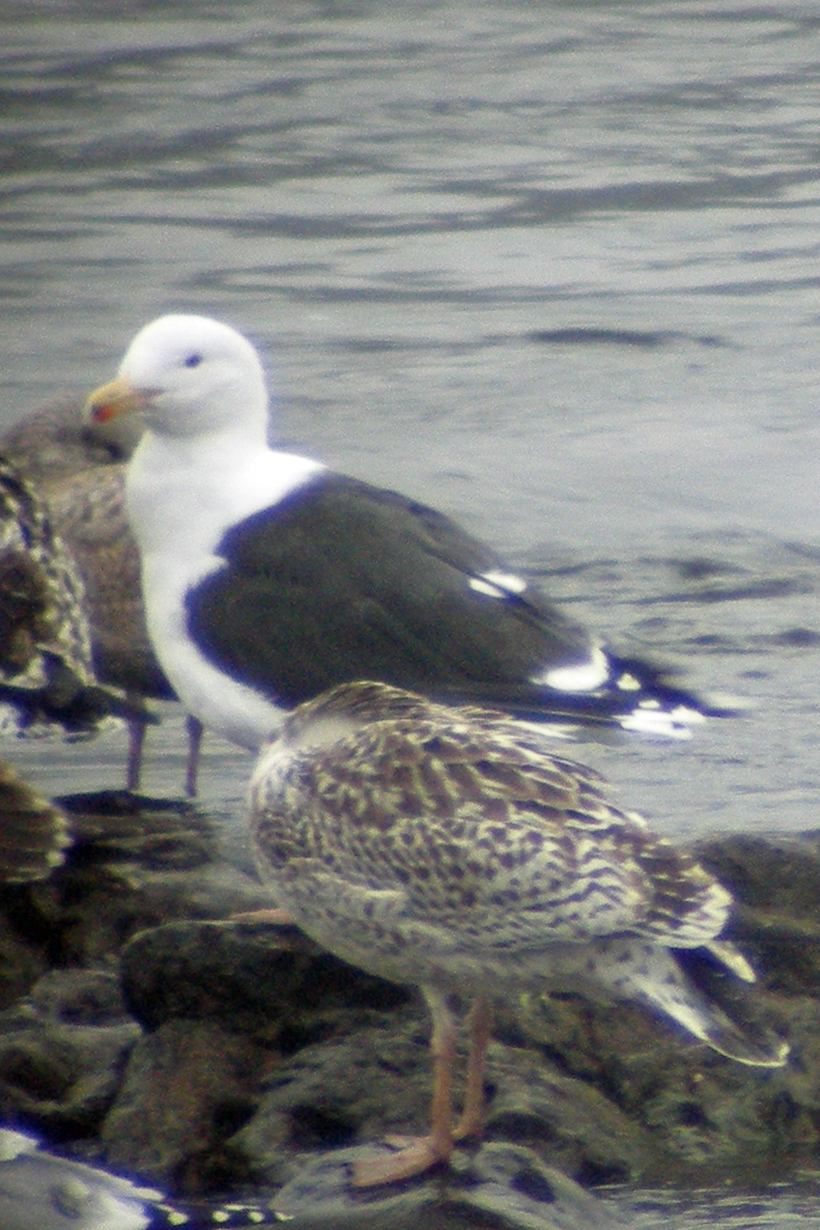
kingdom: Animalia
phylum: Chordata
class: Aves
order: Charadriiformes
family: Laridae
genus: Larus
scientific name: Larus marinus
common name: Great black-backed gull
